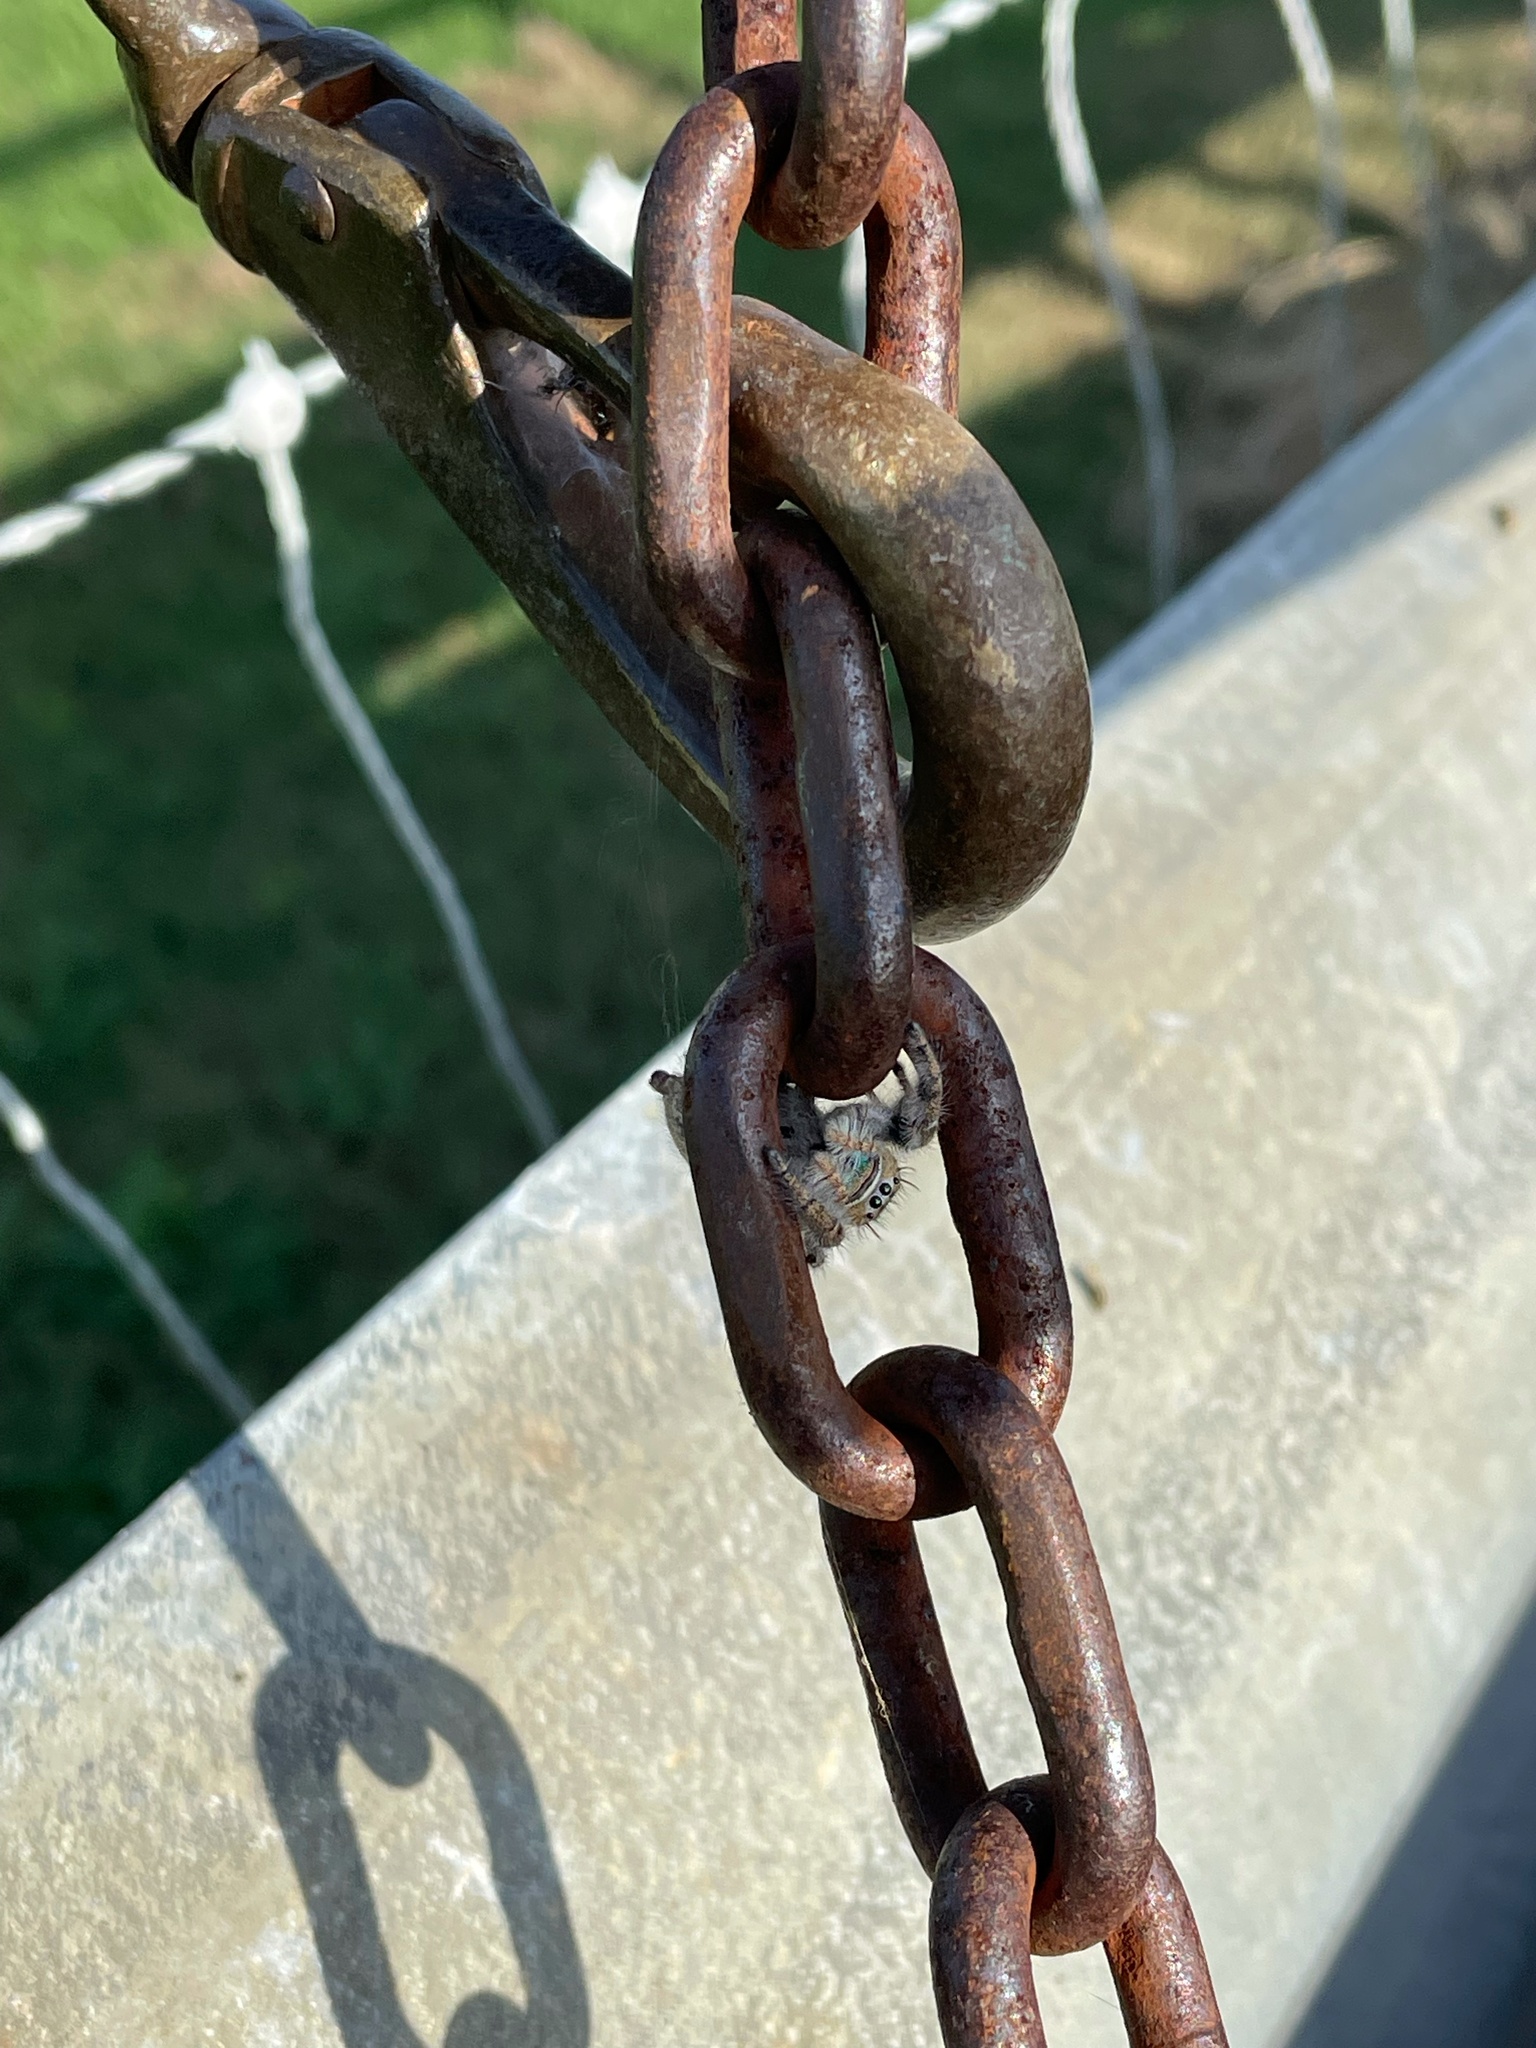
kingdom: Animalia
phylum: Arthropoda
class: Arachnida
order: Araneae
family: Salticidae
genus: Phidippus
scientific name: Phidippus texanus
